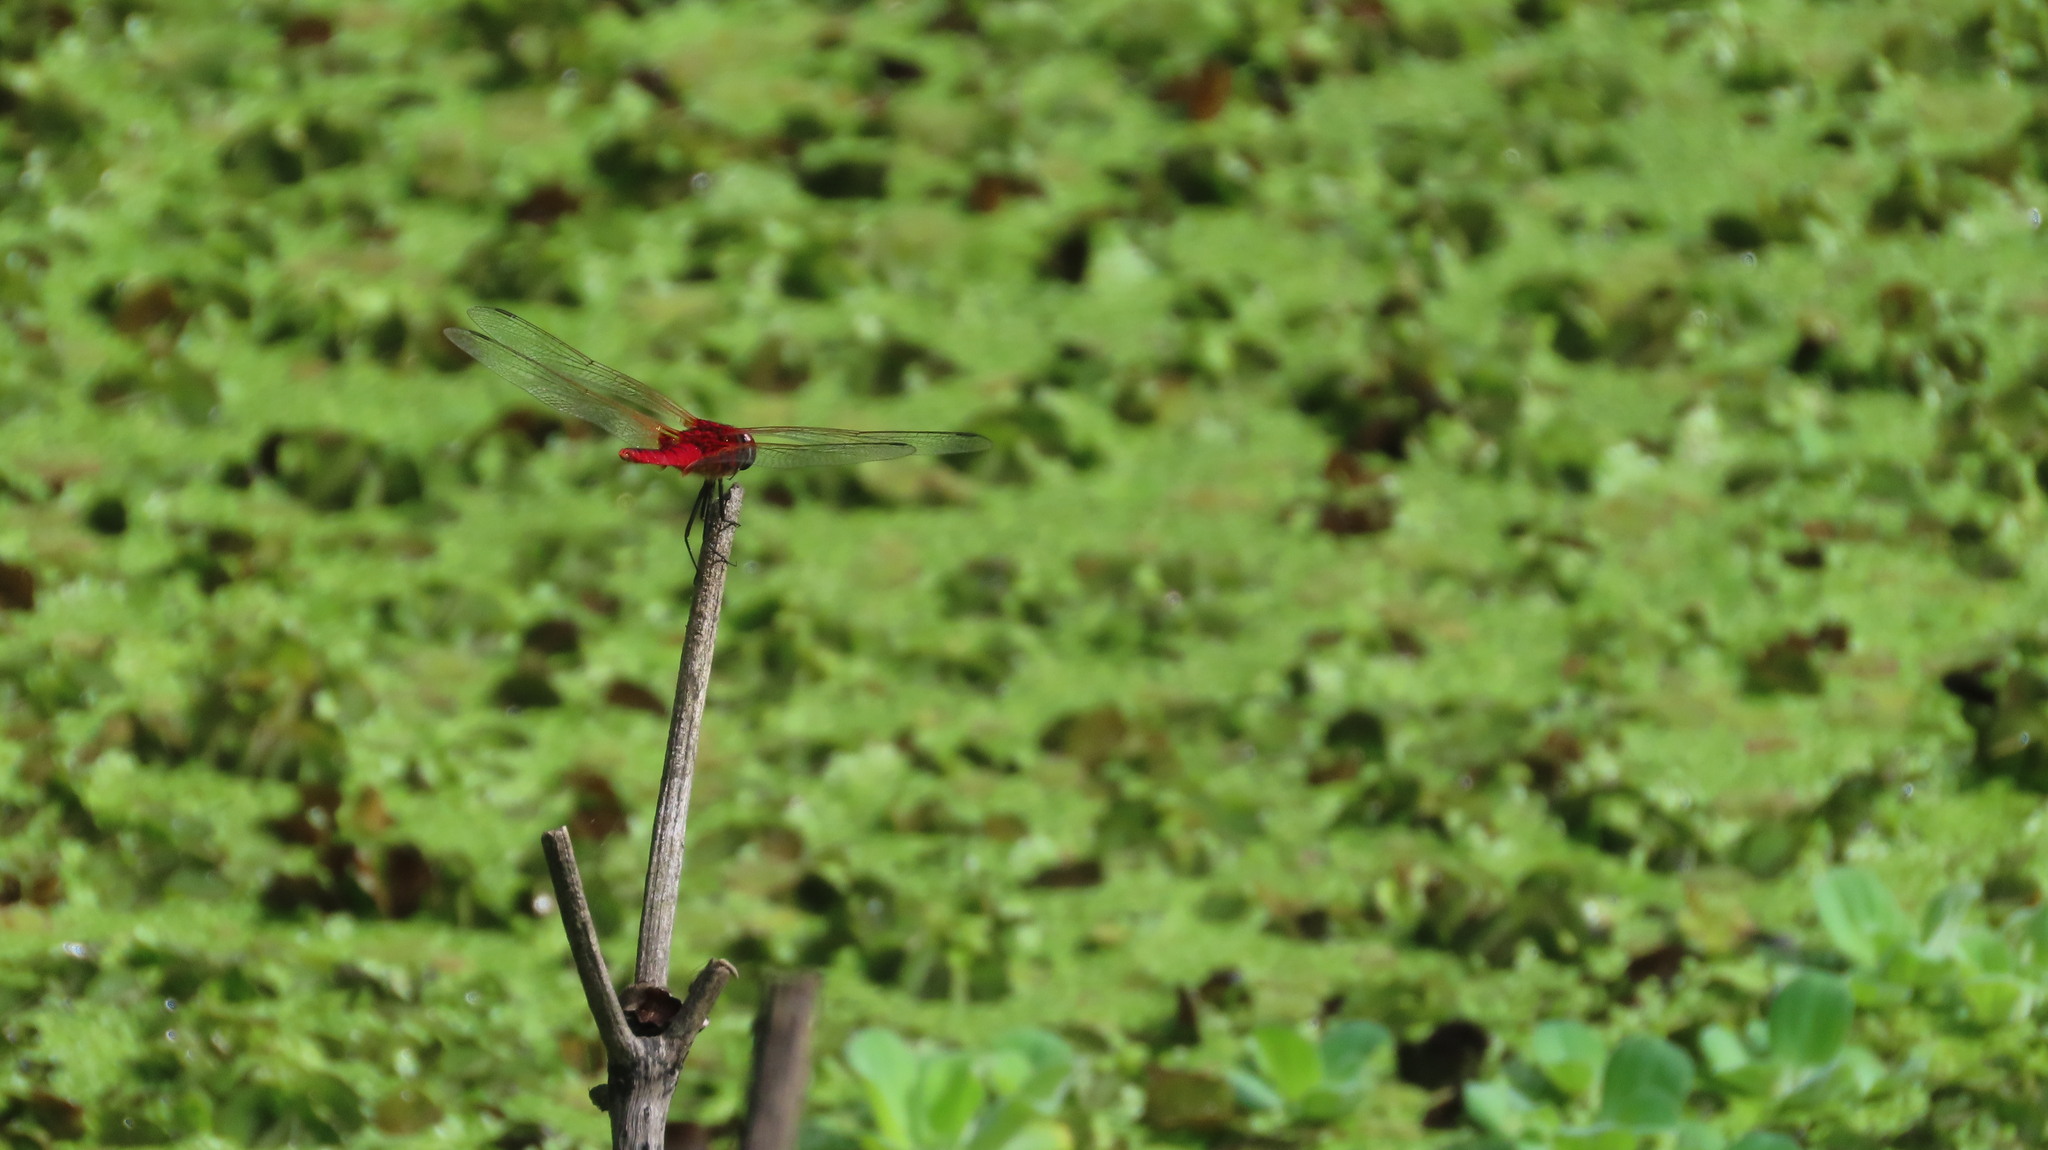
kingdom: Animalia
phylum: Arthropoda
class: Insecta
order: Odonata
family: Libellulidae
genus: Urothemis
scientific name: Urothemis signata
